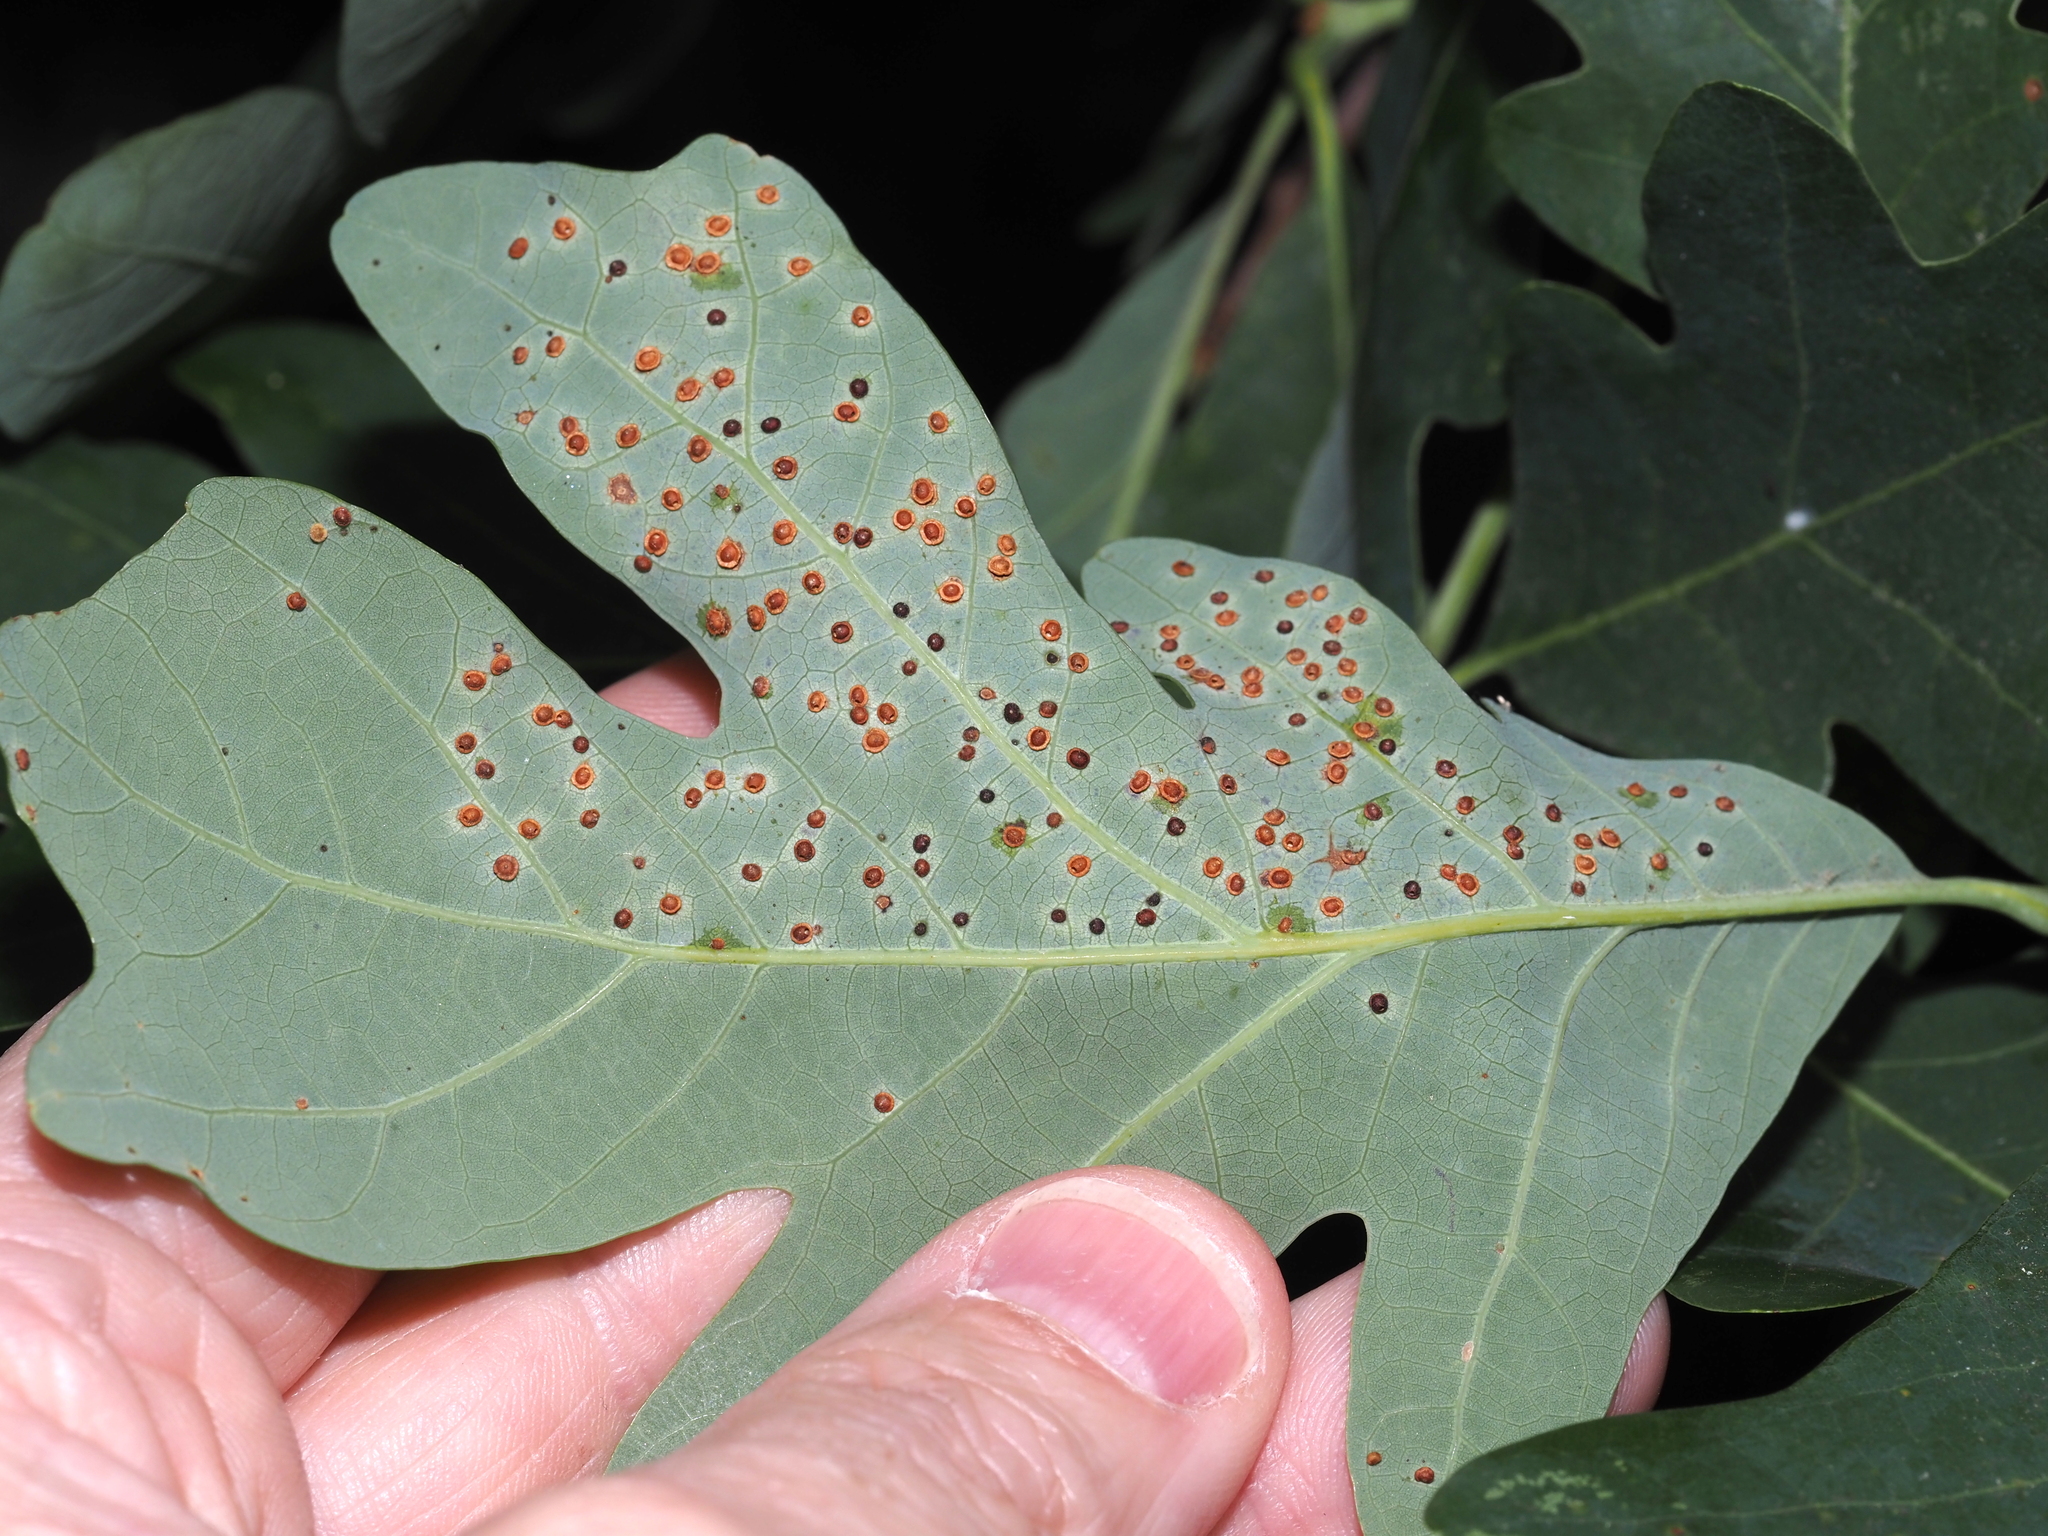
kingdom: Animalia
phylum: Arthropoda
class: Insecta
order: Hymenoptera
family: Cynipidae
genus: Neuroterus
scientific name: Neuroterus
